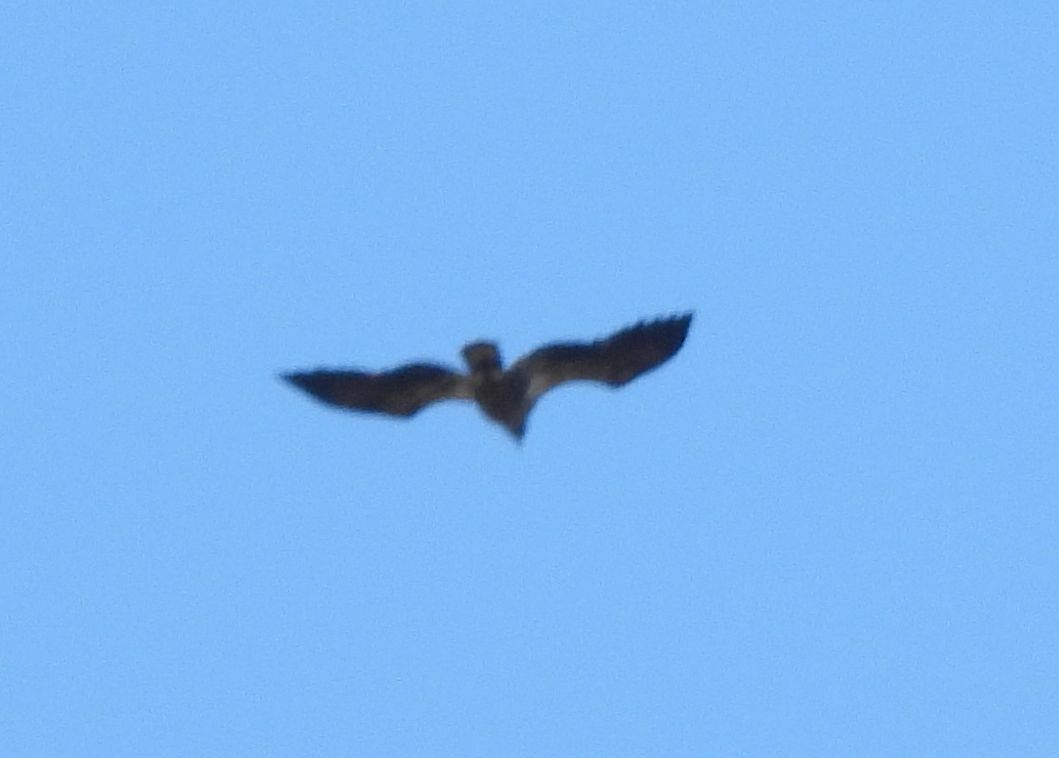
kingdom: Animalia
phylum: Chordata
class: Aves
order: Accipitriformes
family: Accipitridae
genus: Haliaeetus
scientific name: Haliaeetus leucocephalus
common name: Bald eagle
